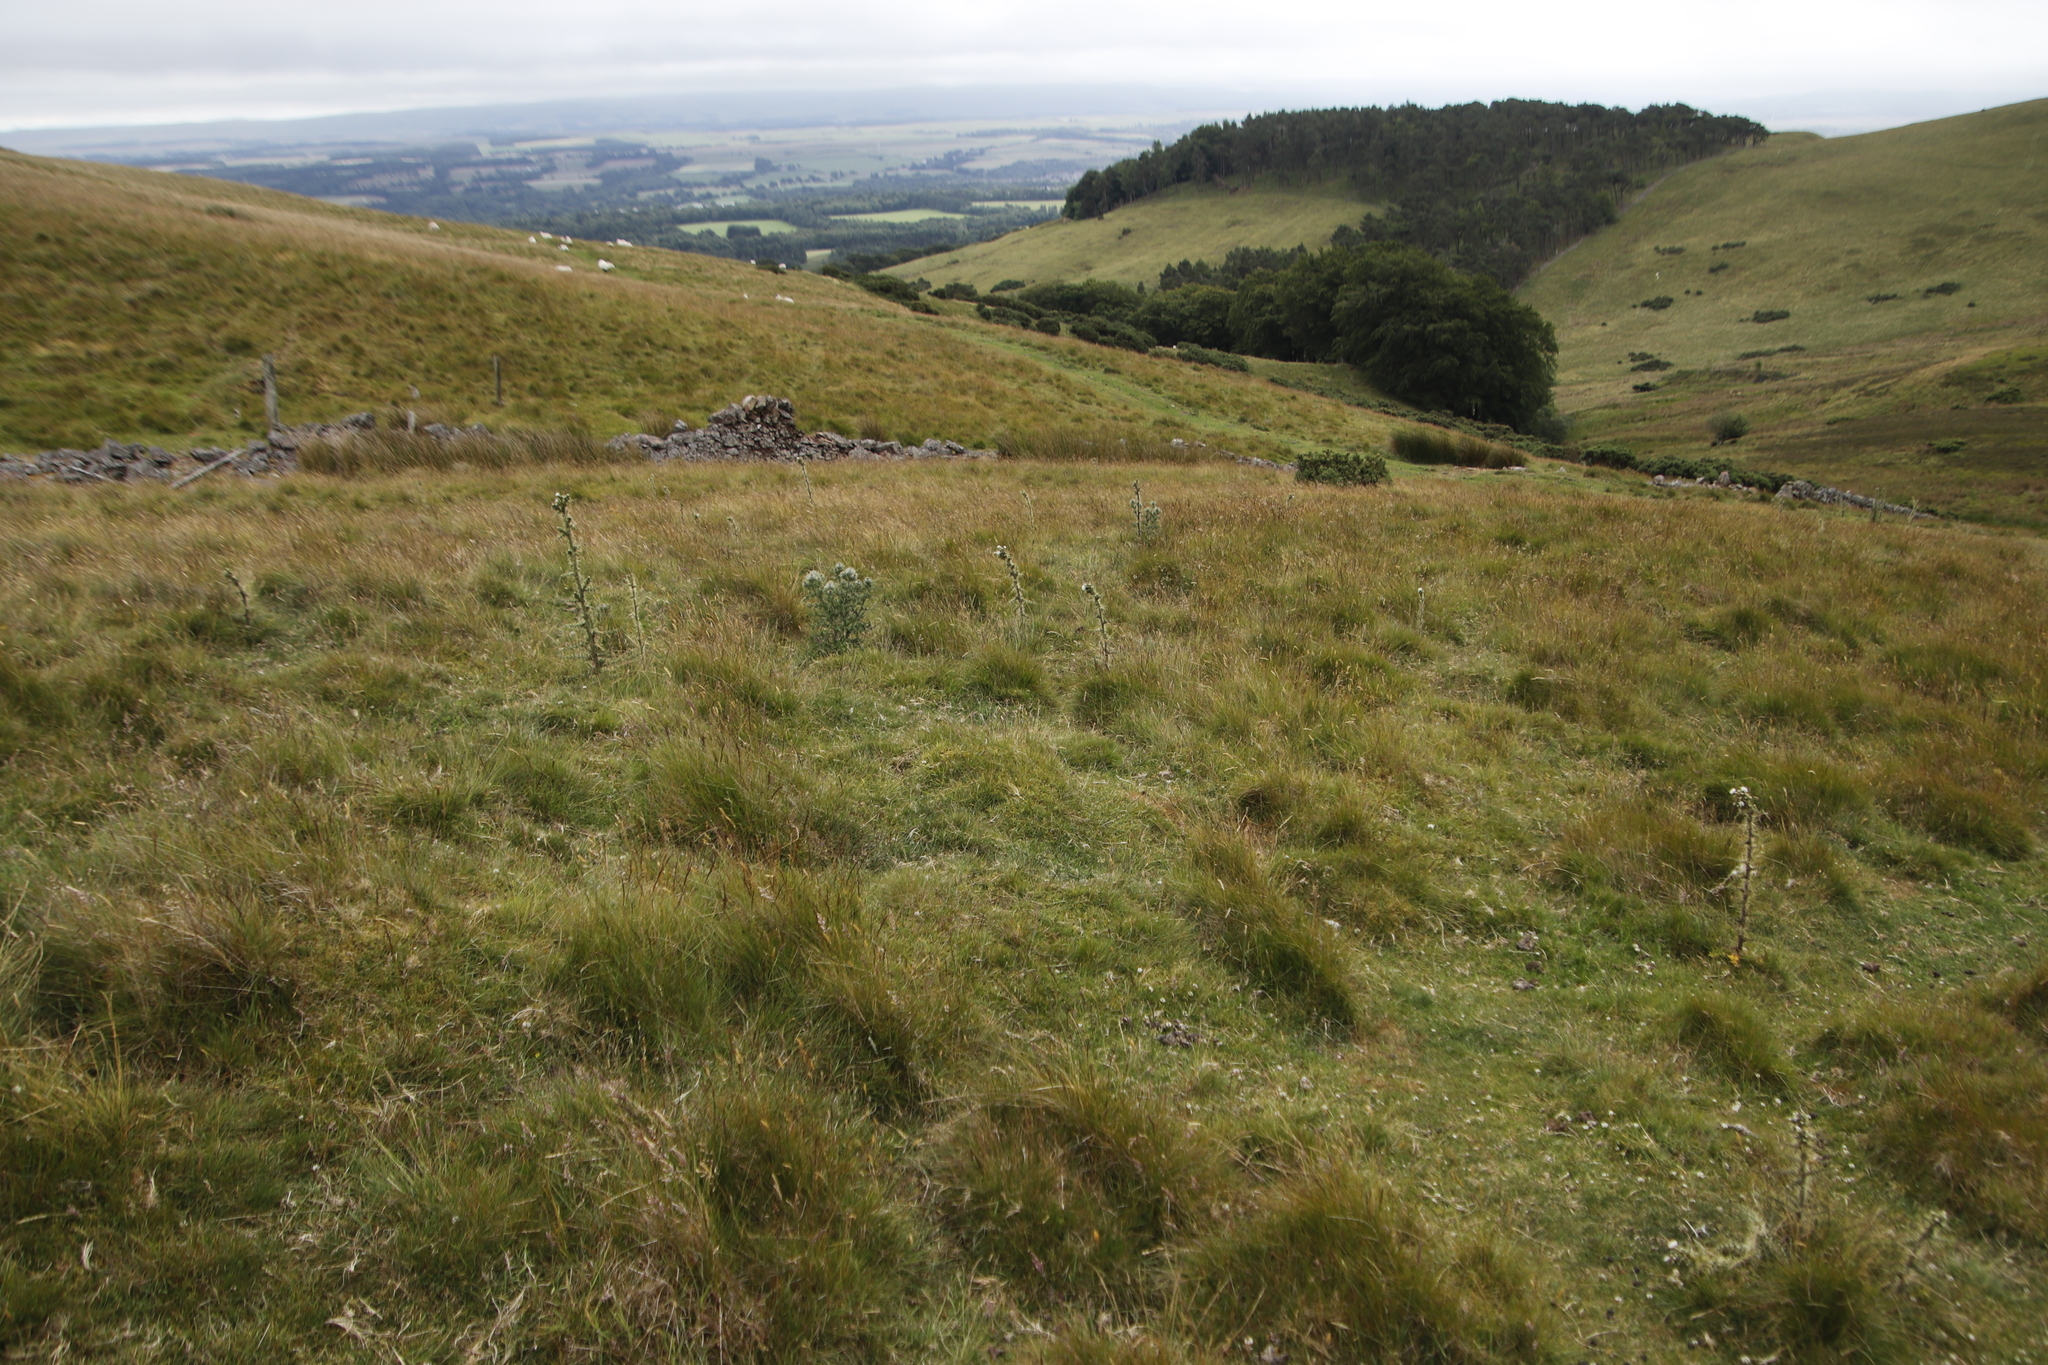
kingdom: Plantae
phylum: Tracheophyta
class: Magnoliopsida
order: Asterales
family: Asteraceae
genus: Cirsium
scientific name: Cirsium palustre
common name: Marsh thistle
